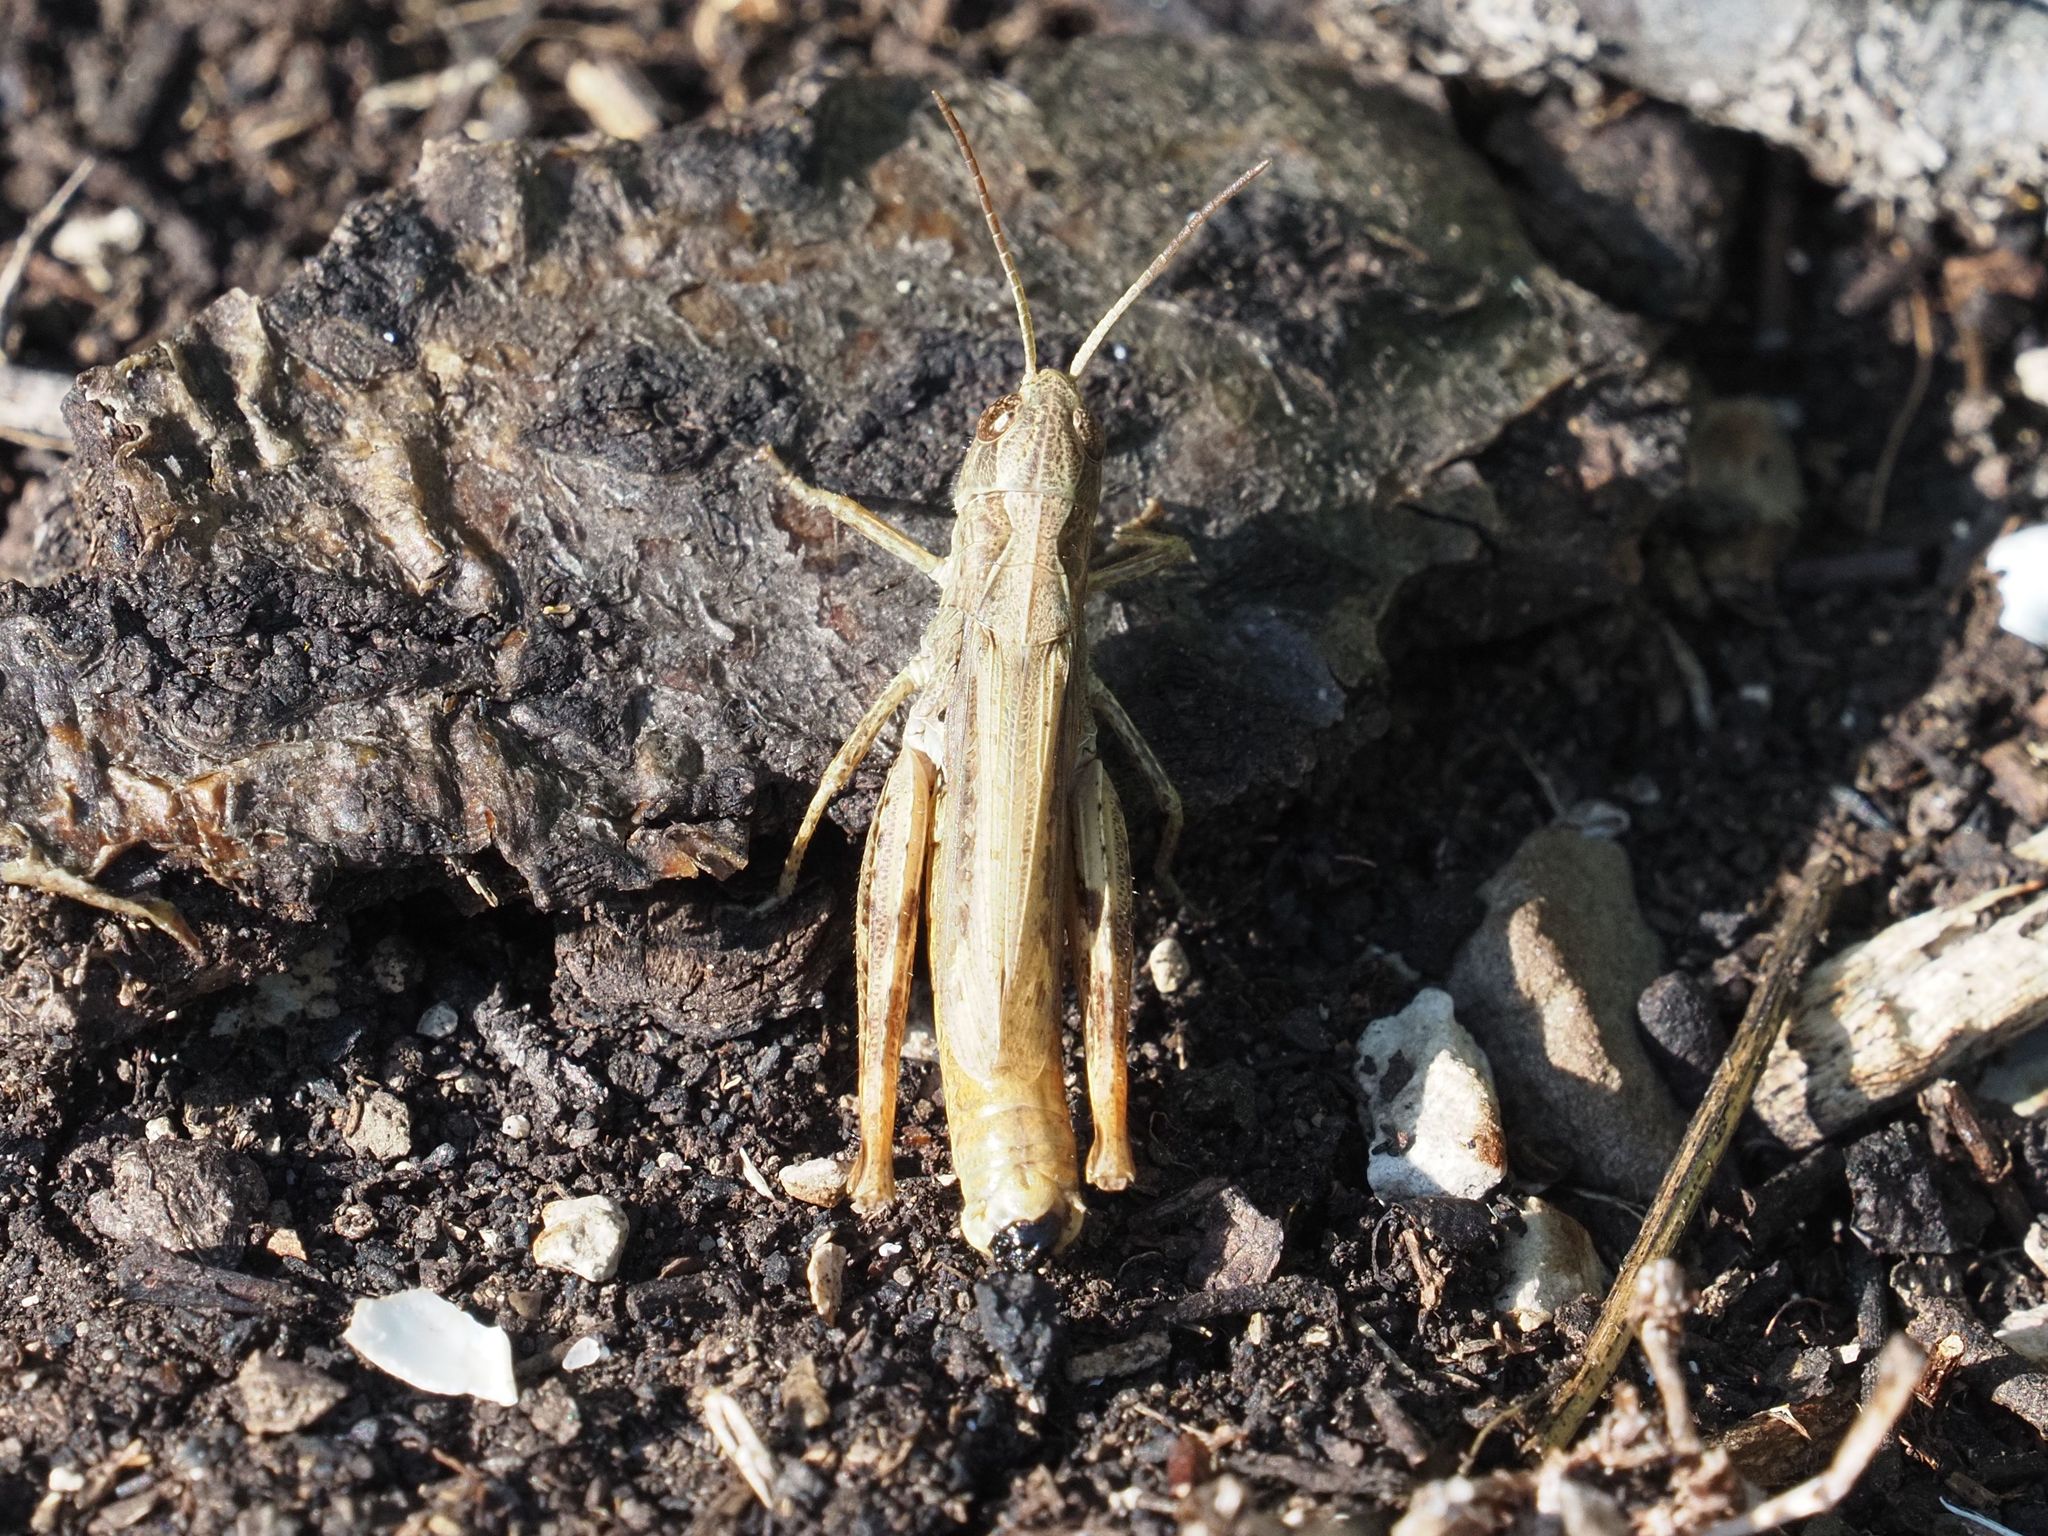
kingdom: Animalia
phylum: Arthropoda
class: Insecta
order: Orthoptera
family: Acrididae
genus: Chorthippus
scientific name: Chorthippus apricarius
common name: Upland field grasshopper
